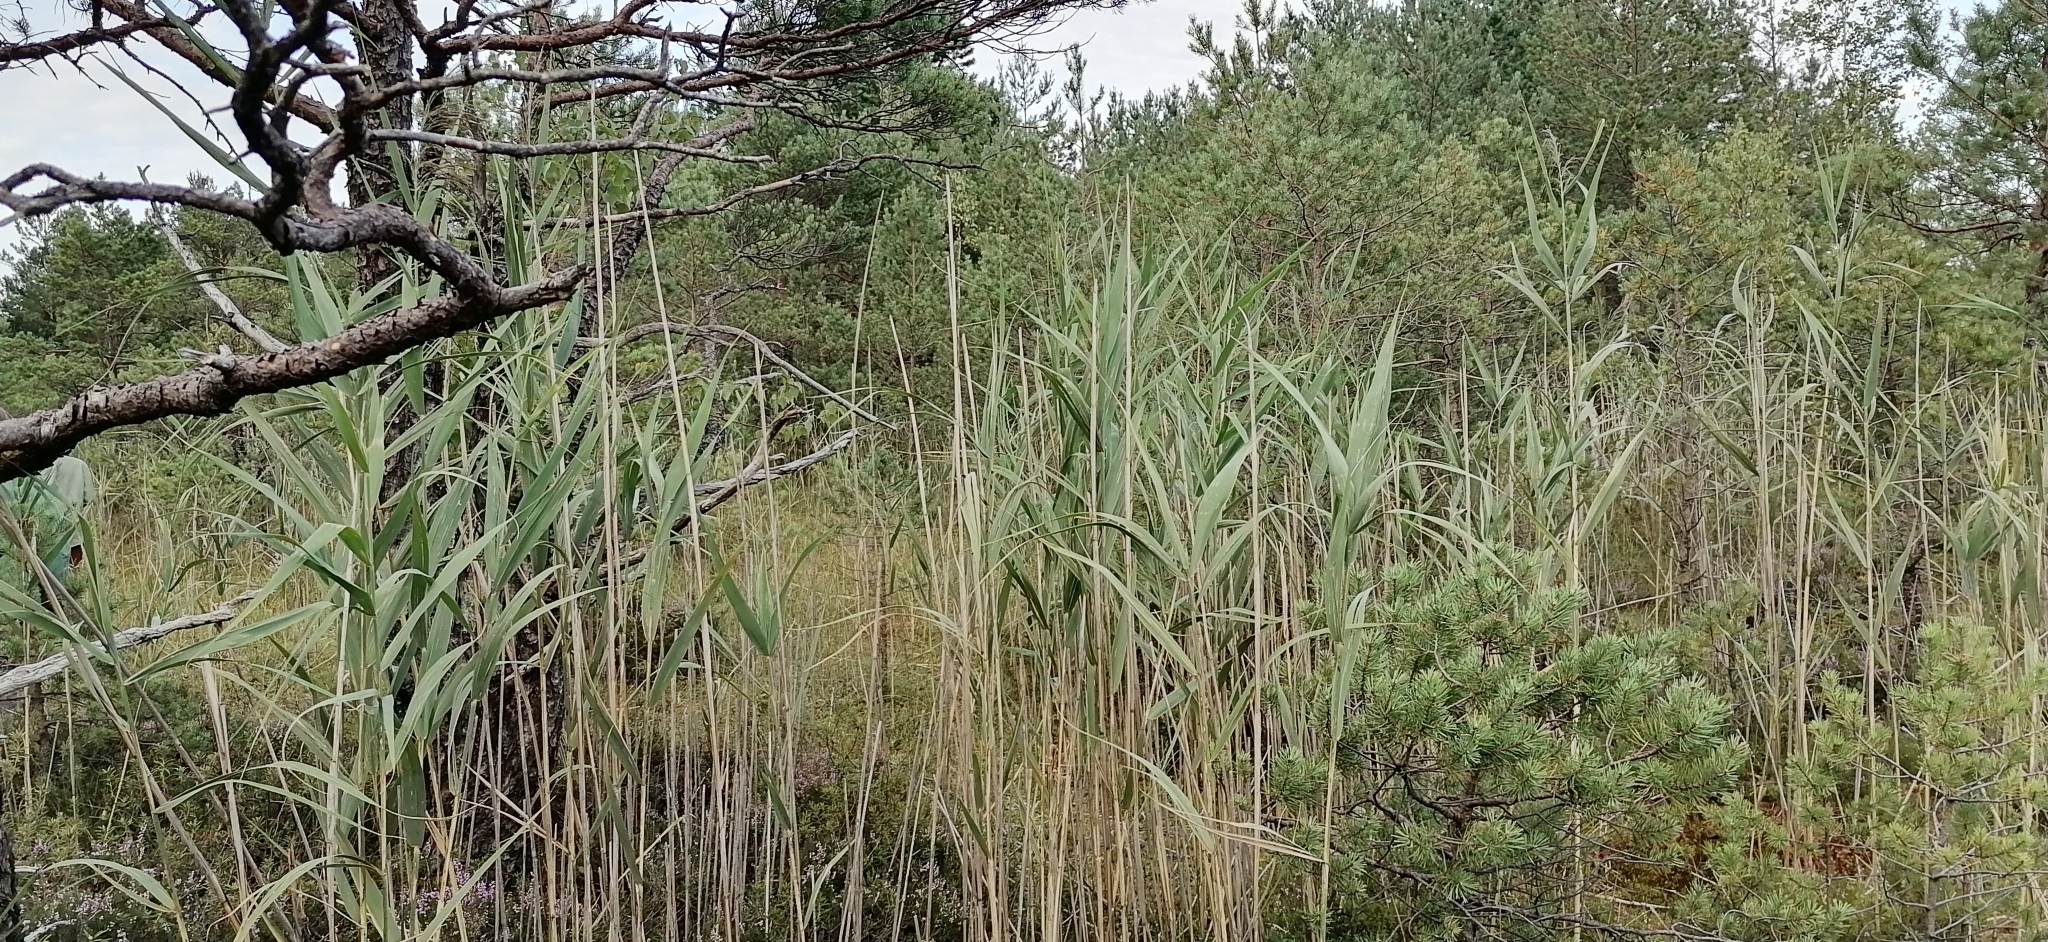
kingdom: Plantae
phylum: Tracheophyta
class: Liliopsida
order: Poales
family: Poaceae
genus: Phragmites
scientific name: Phragmites australis
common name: Common reed
